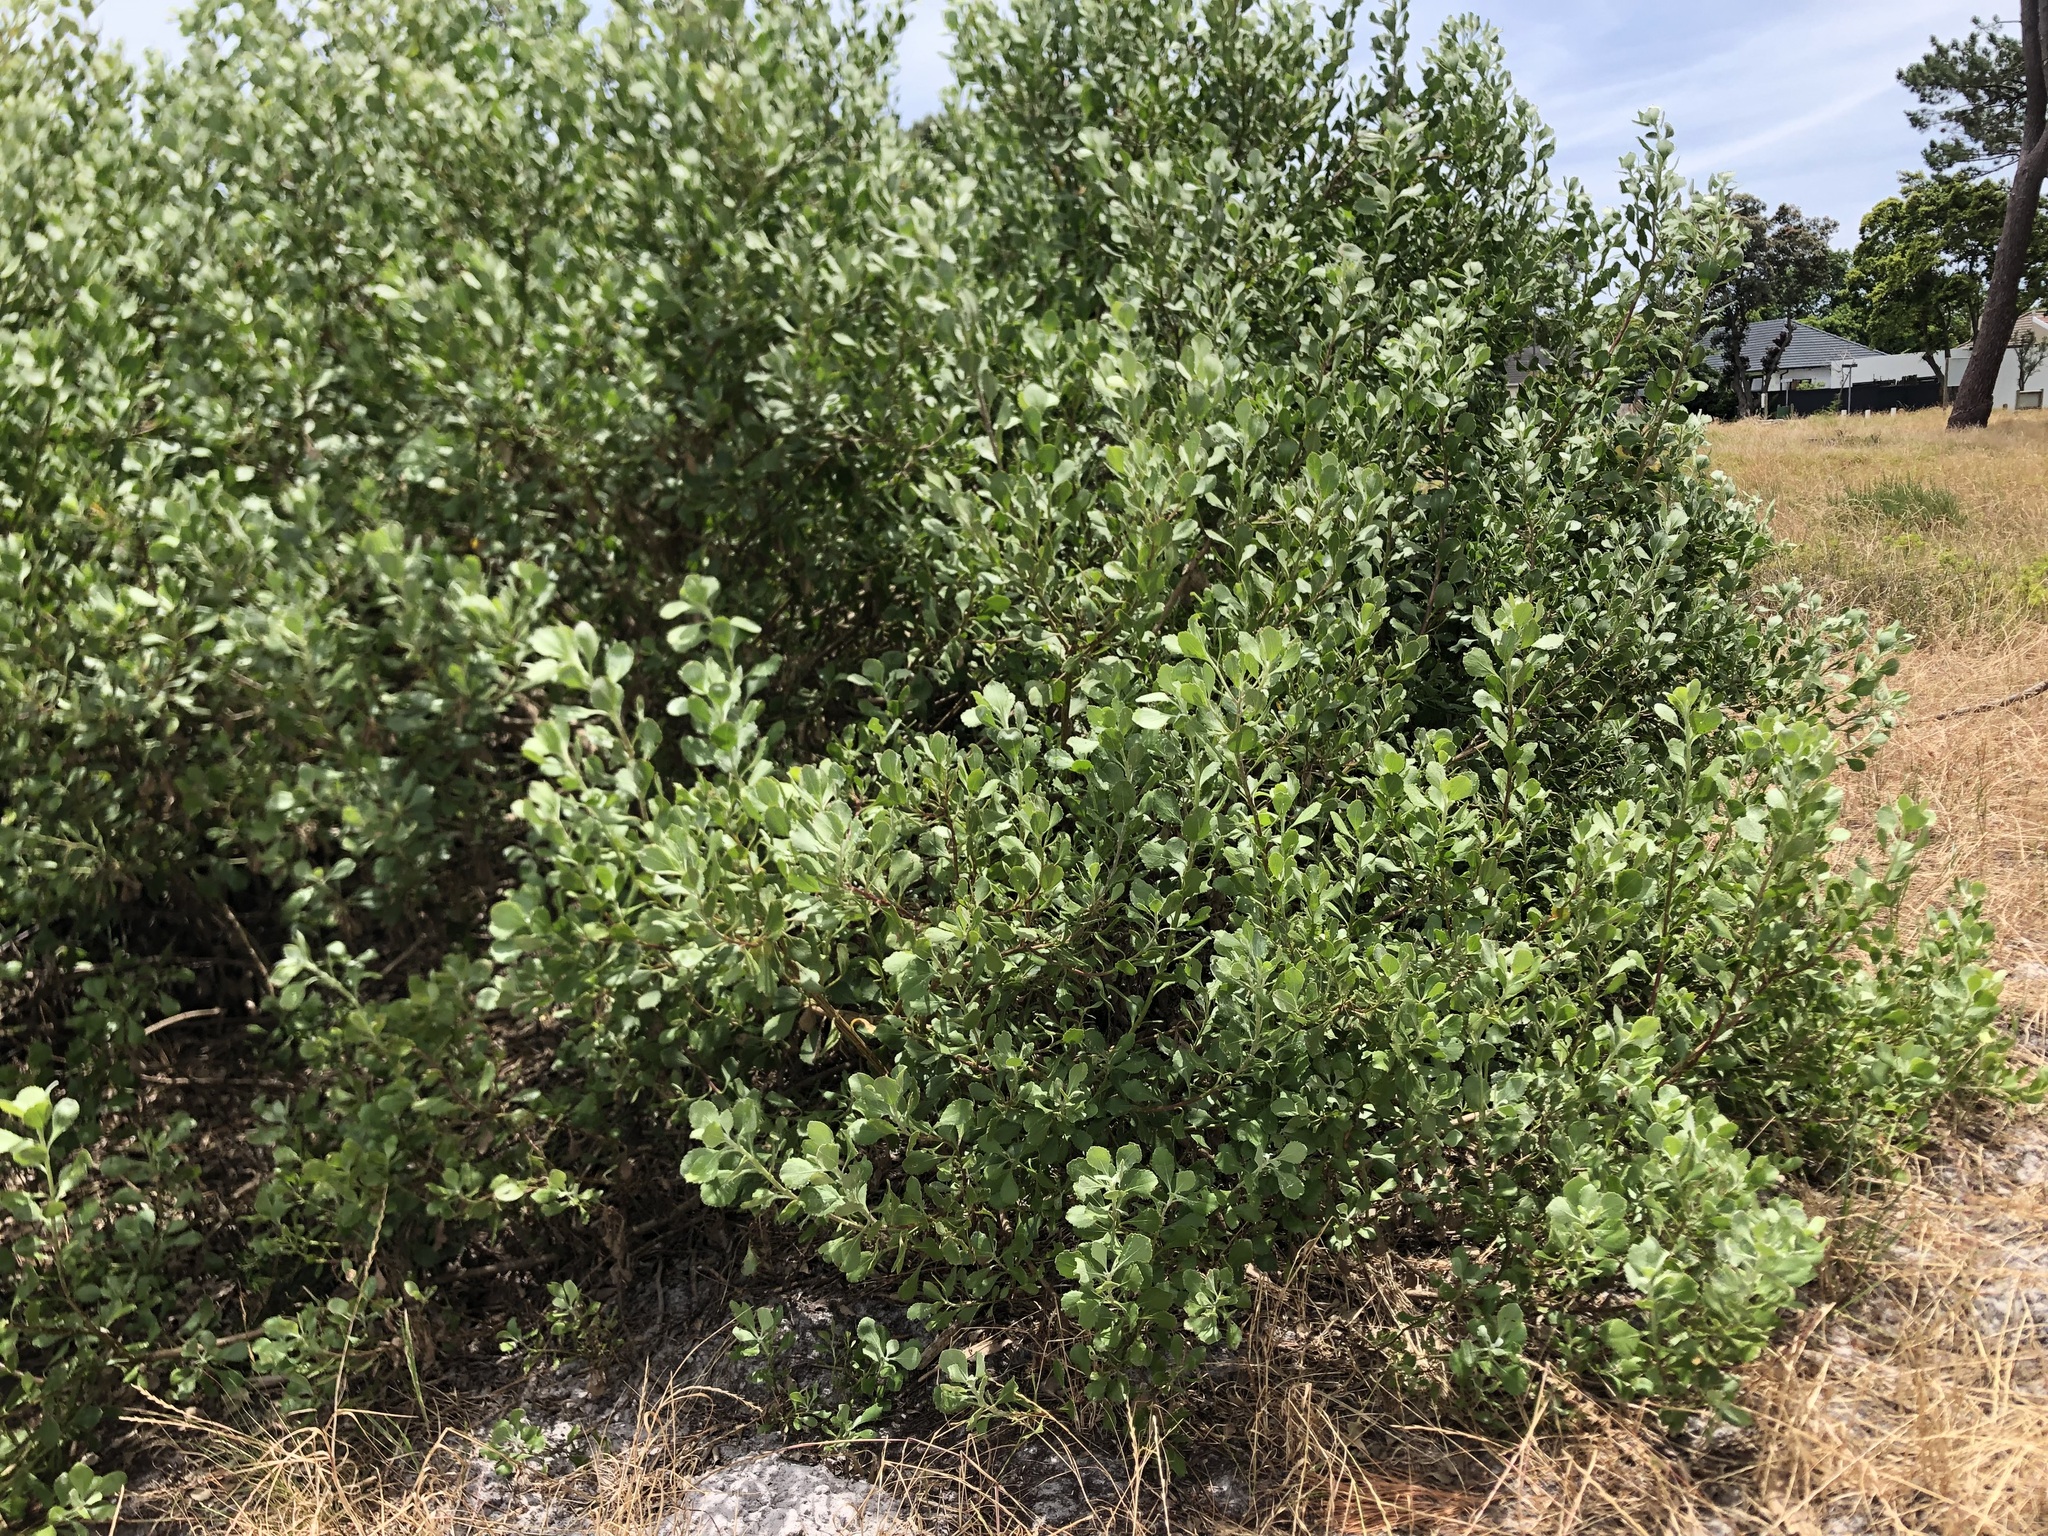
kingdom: Plantae
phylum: Tracheophyta
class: Magnoliopsida
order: Asterales
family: Asteraceae
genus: Osteospermum
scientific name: Osteospermum moniliferum
